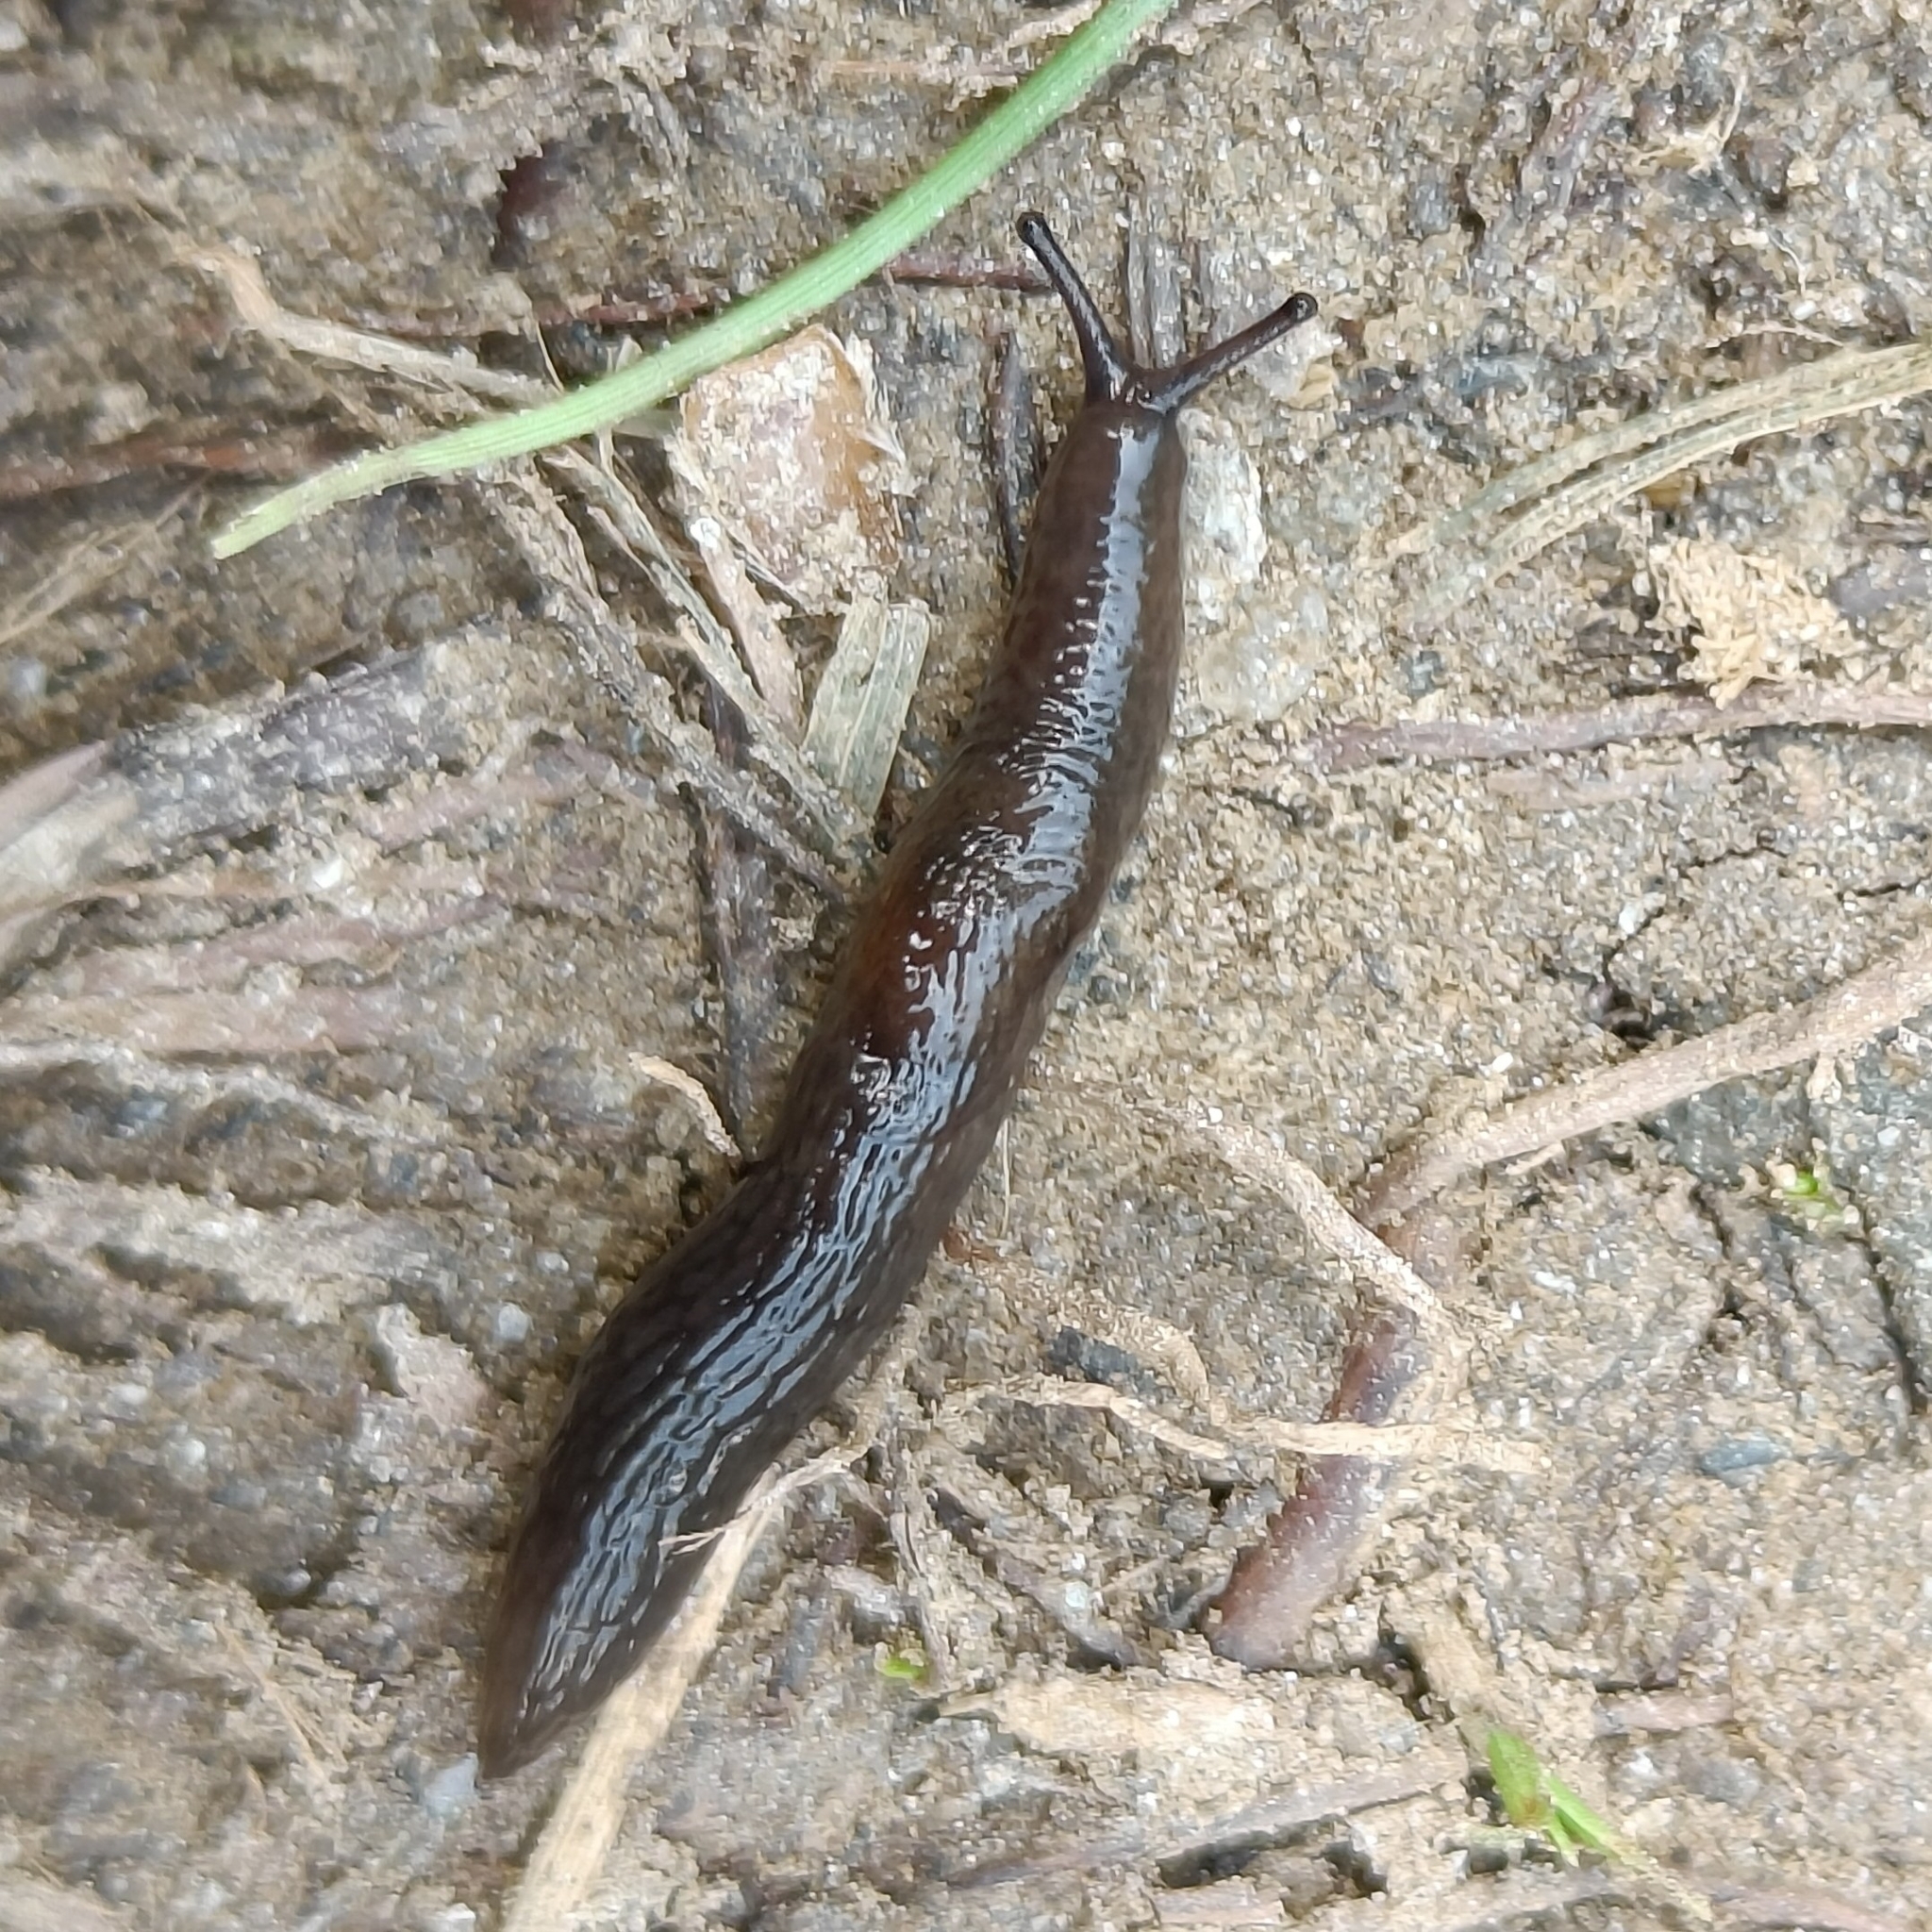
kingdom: Animalia
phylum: Mollusca
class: Gastropoda
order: Stylommatophora
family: Agriolimacidae
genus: Deroceras
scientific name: Deroceras laeve
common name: Marsh slug
